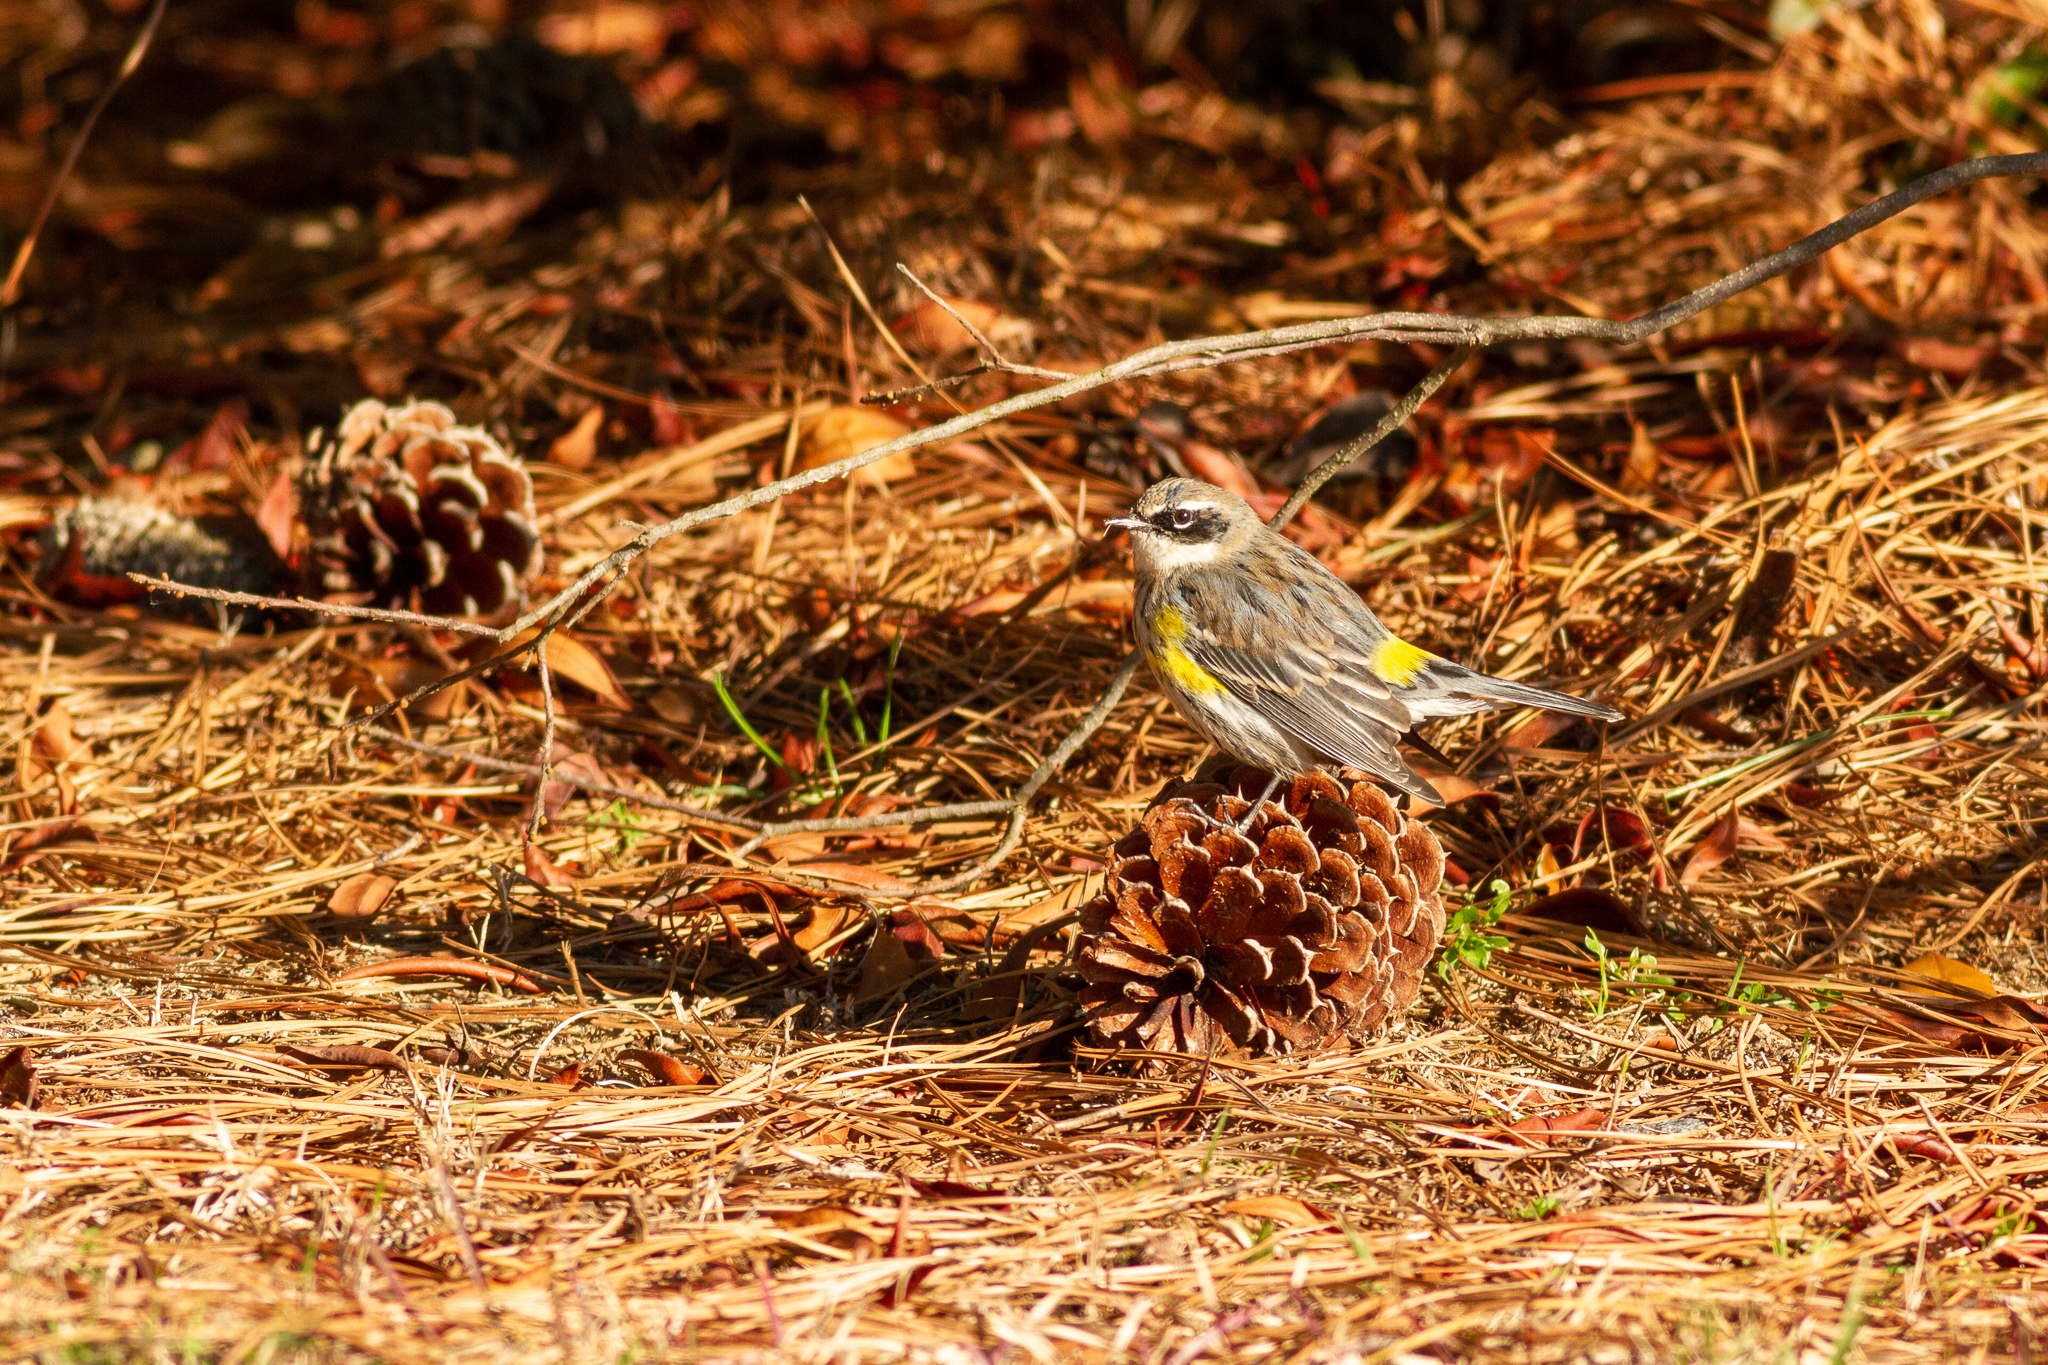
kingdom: Animalia
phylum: Chordata
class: Aves
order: Passeriformes
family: Parulidae
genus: Setophaga
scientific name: Setophaga coronata
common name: Myrtle warbler
